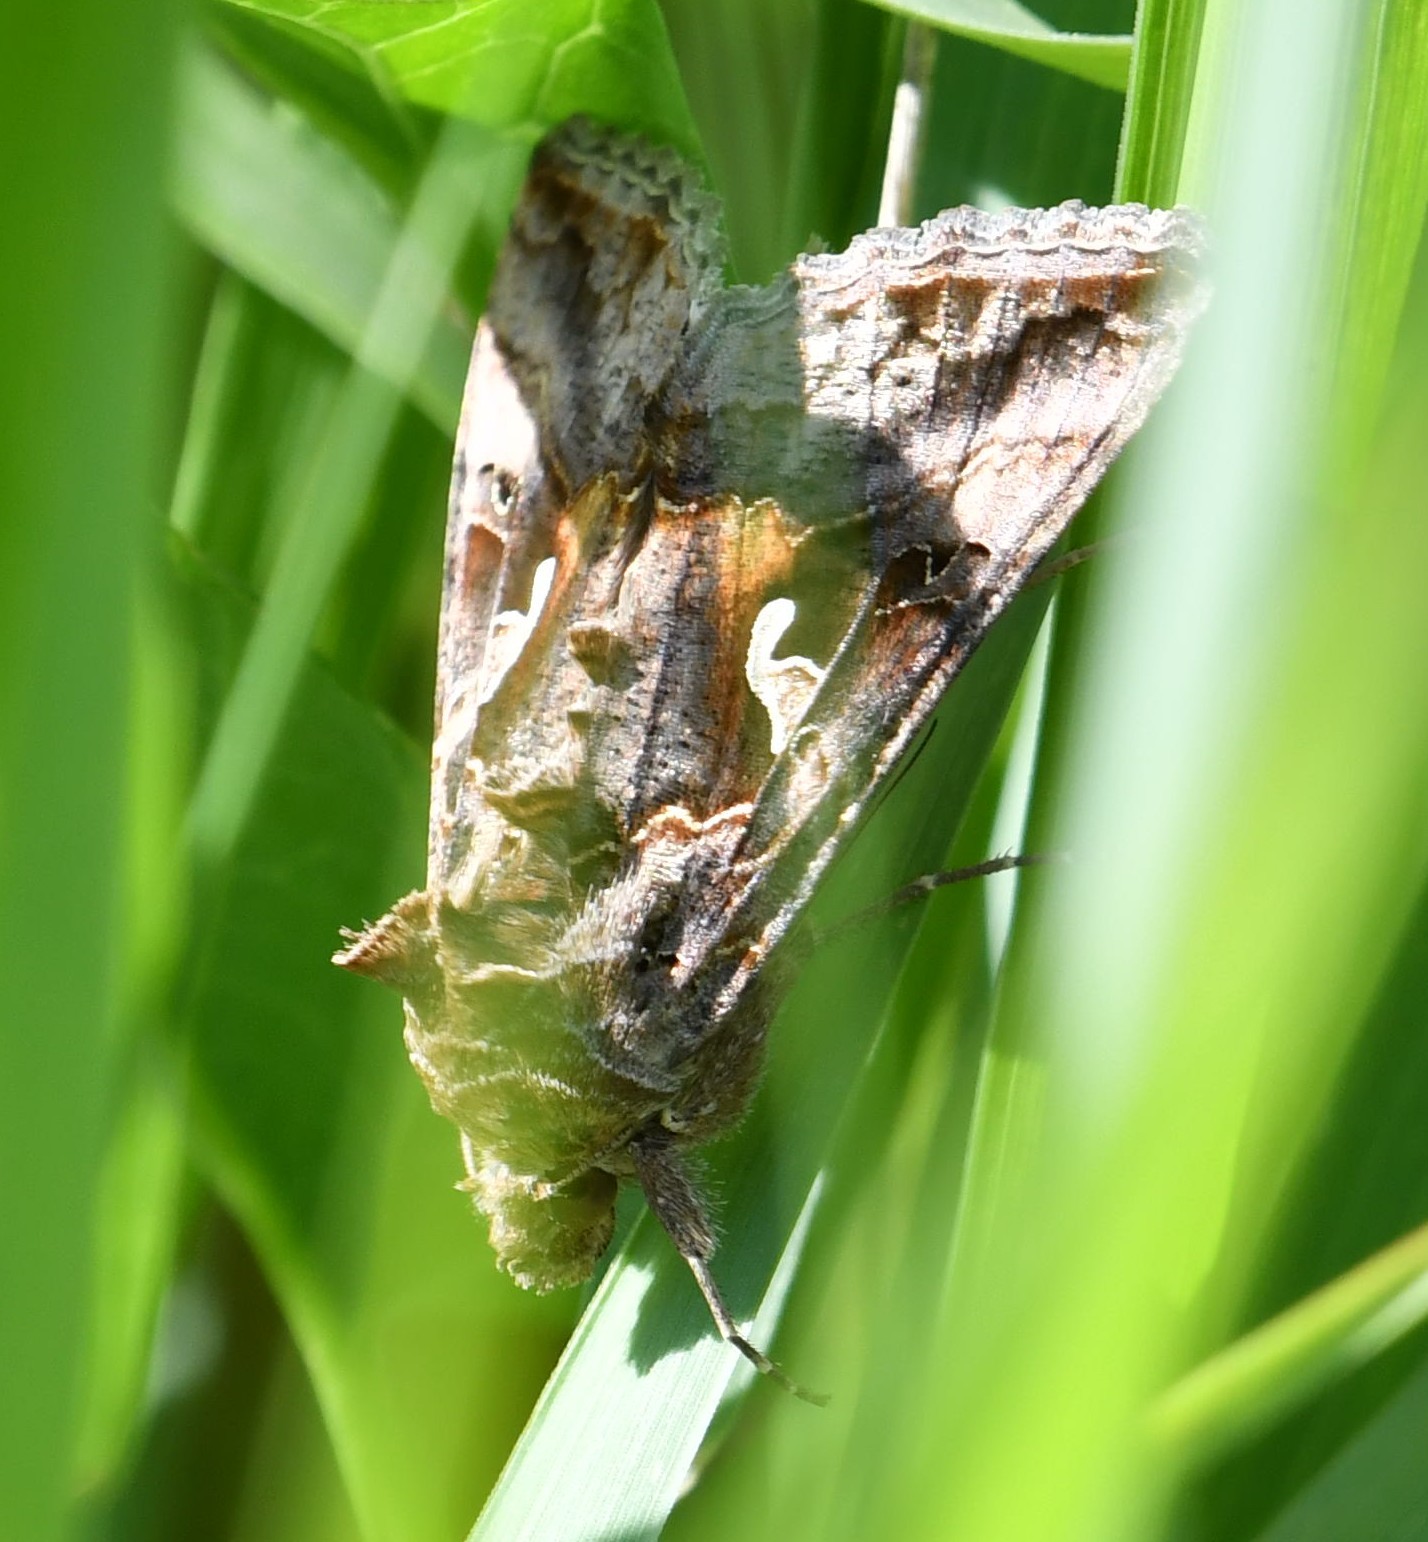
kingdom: Animalia
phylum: Arthropoda
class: Insecta
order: Lepidoptera
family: Noctuidae
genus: Autographa
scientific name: Autographa gamma
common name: Silver y
